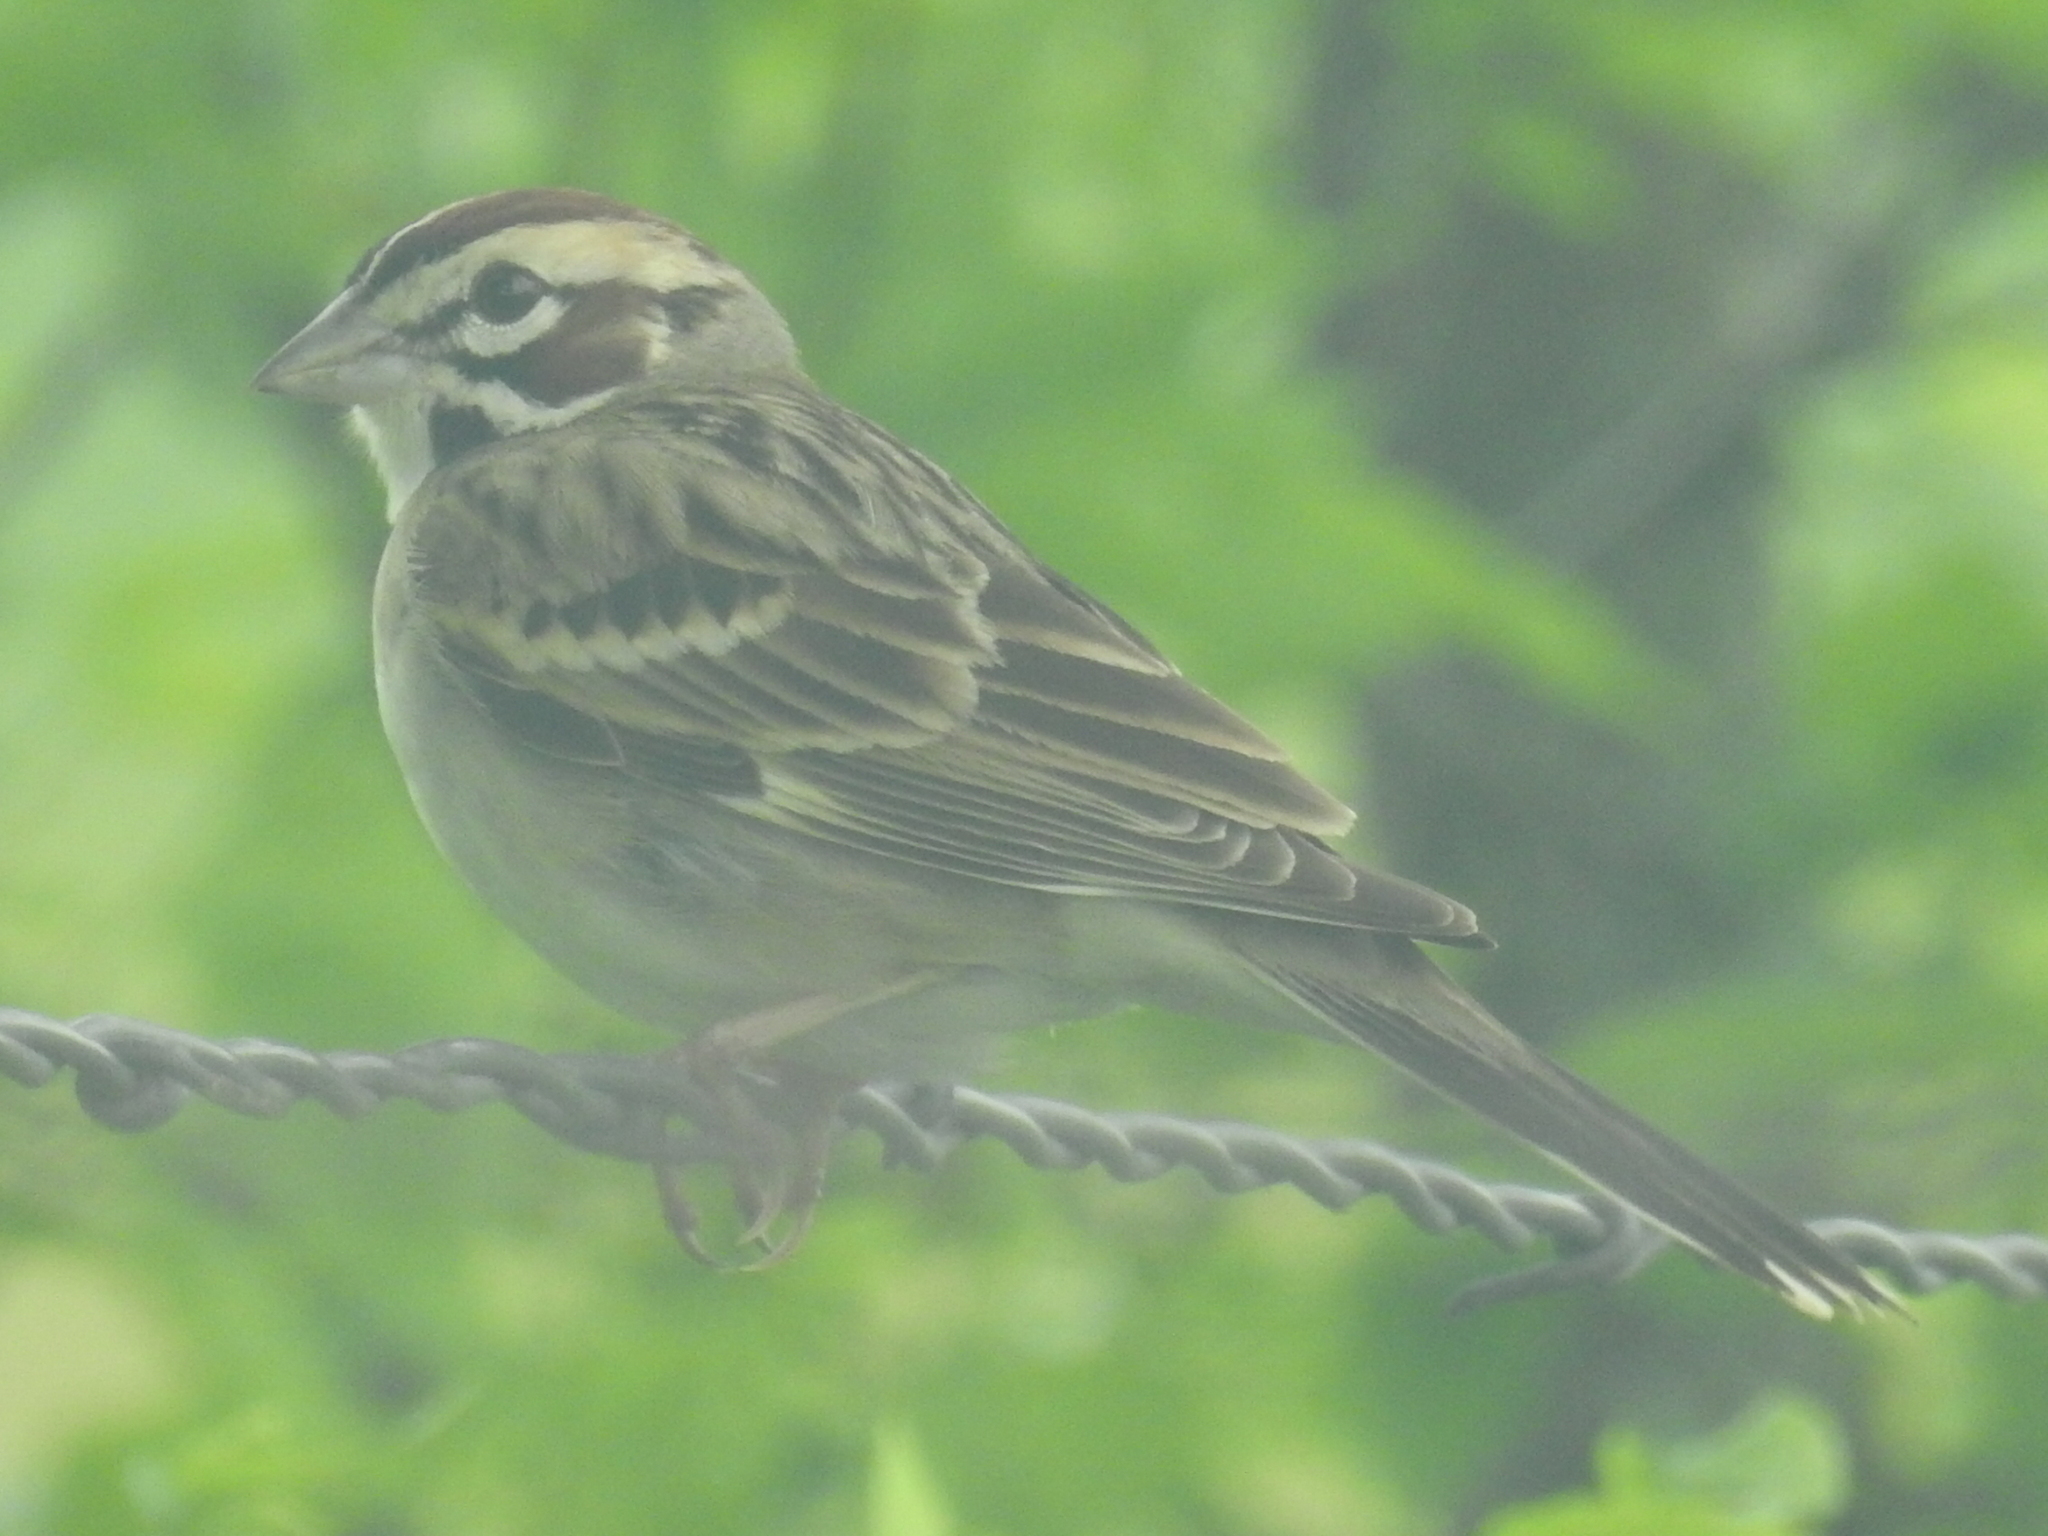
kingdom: Animalia
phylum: Chordata
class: Aves
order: Passeriformes
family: Passerellidae
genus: Chondestes
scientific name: Chondestes grammacus
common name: Lark sparrow
